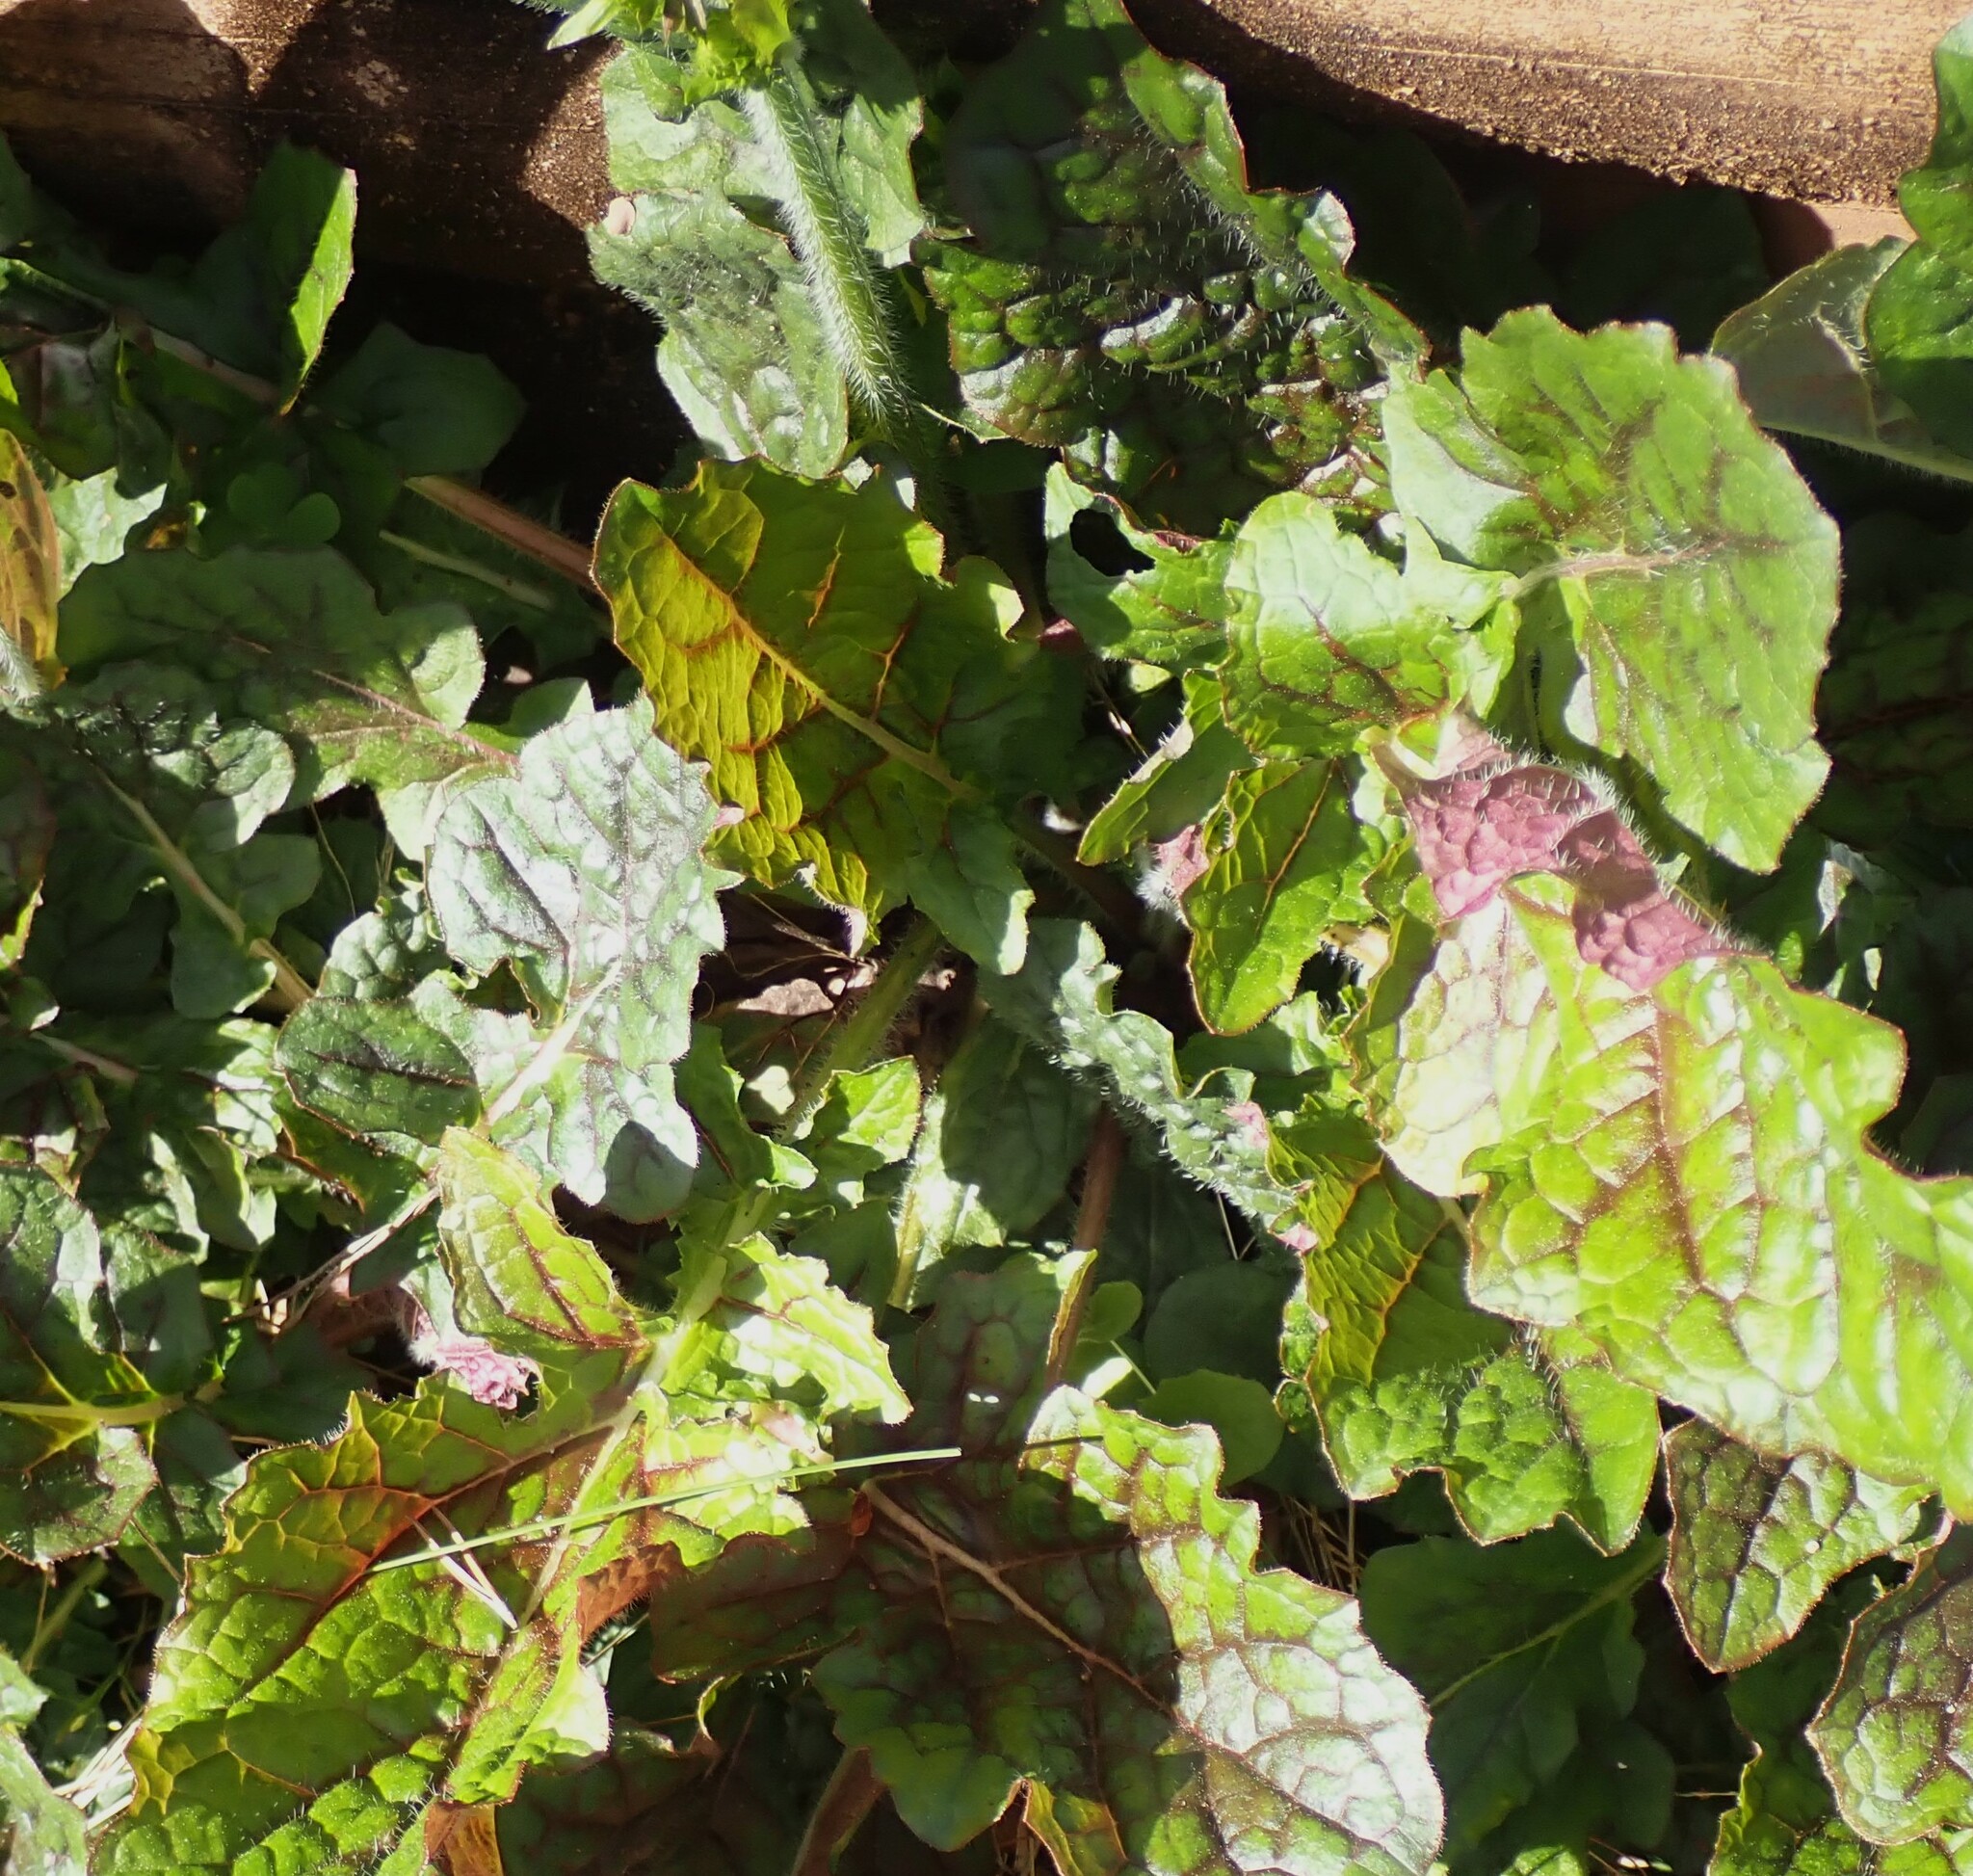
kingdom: Plantae
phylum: Tracheophyta
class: Magnoliopsida
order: Lamiales
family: Lamiaceae
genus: Salvia
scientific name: Salvia lyrata
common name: Cancerweed
